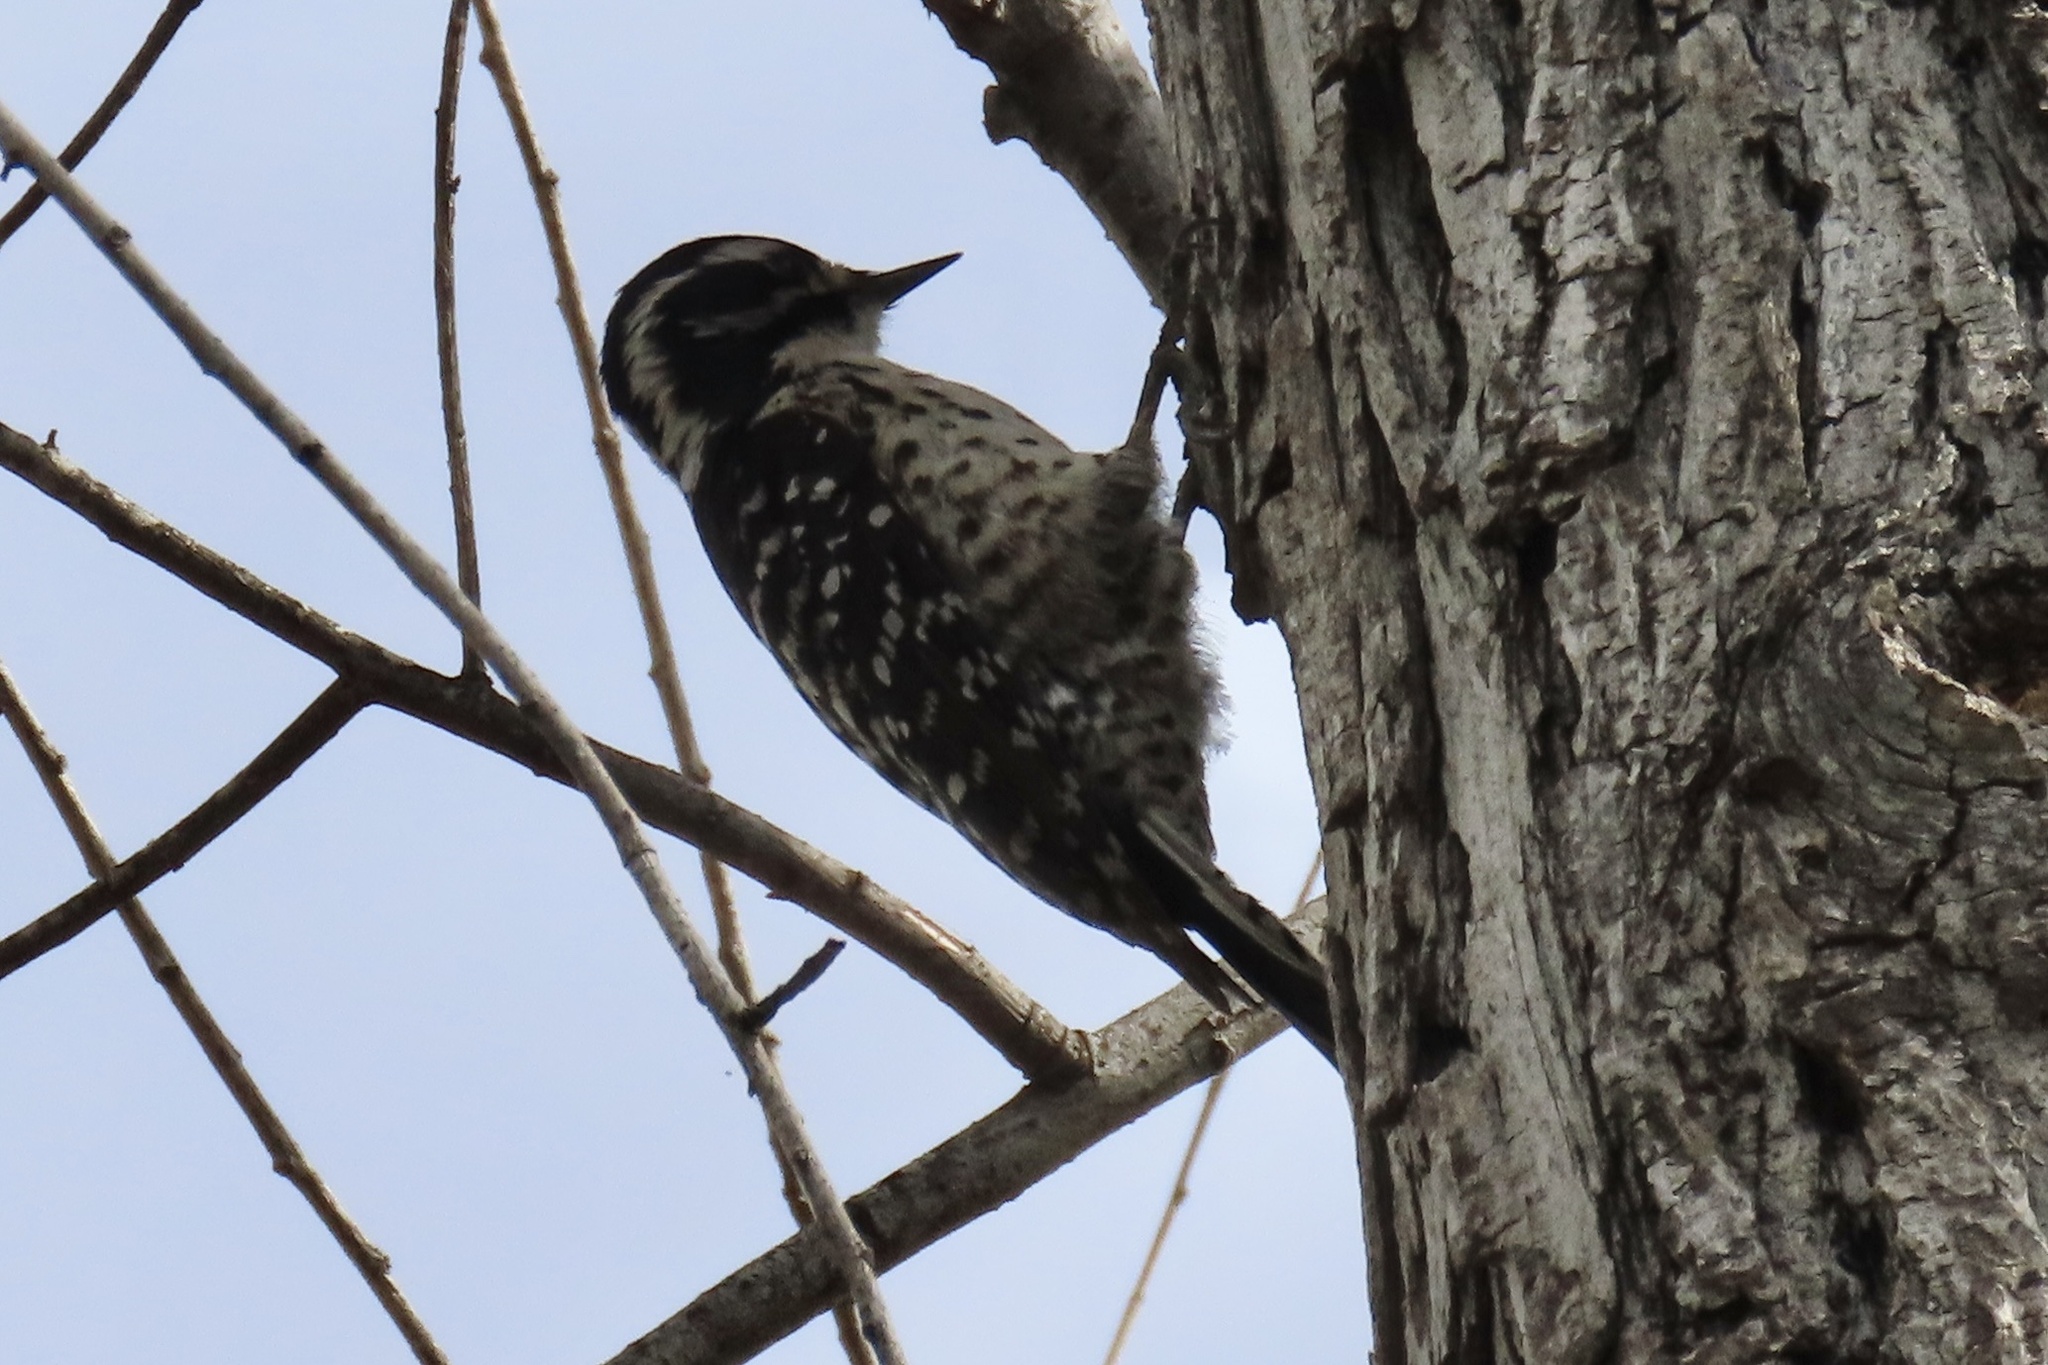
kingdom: Animalia
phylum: Chordata
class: Aves
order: Piciformes
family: Picidae
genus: Dryobates
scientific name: Dryobates nuttallii
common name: Nuttall's woodpecker
